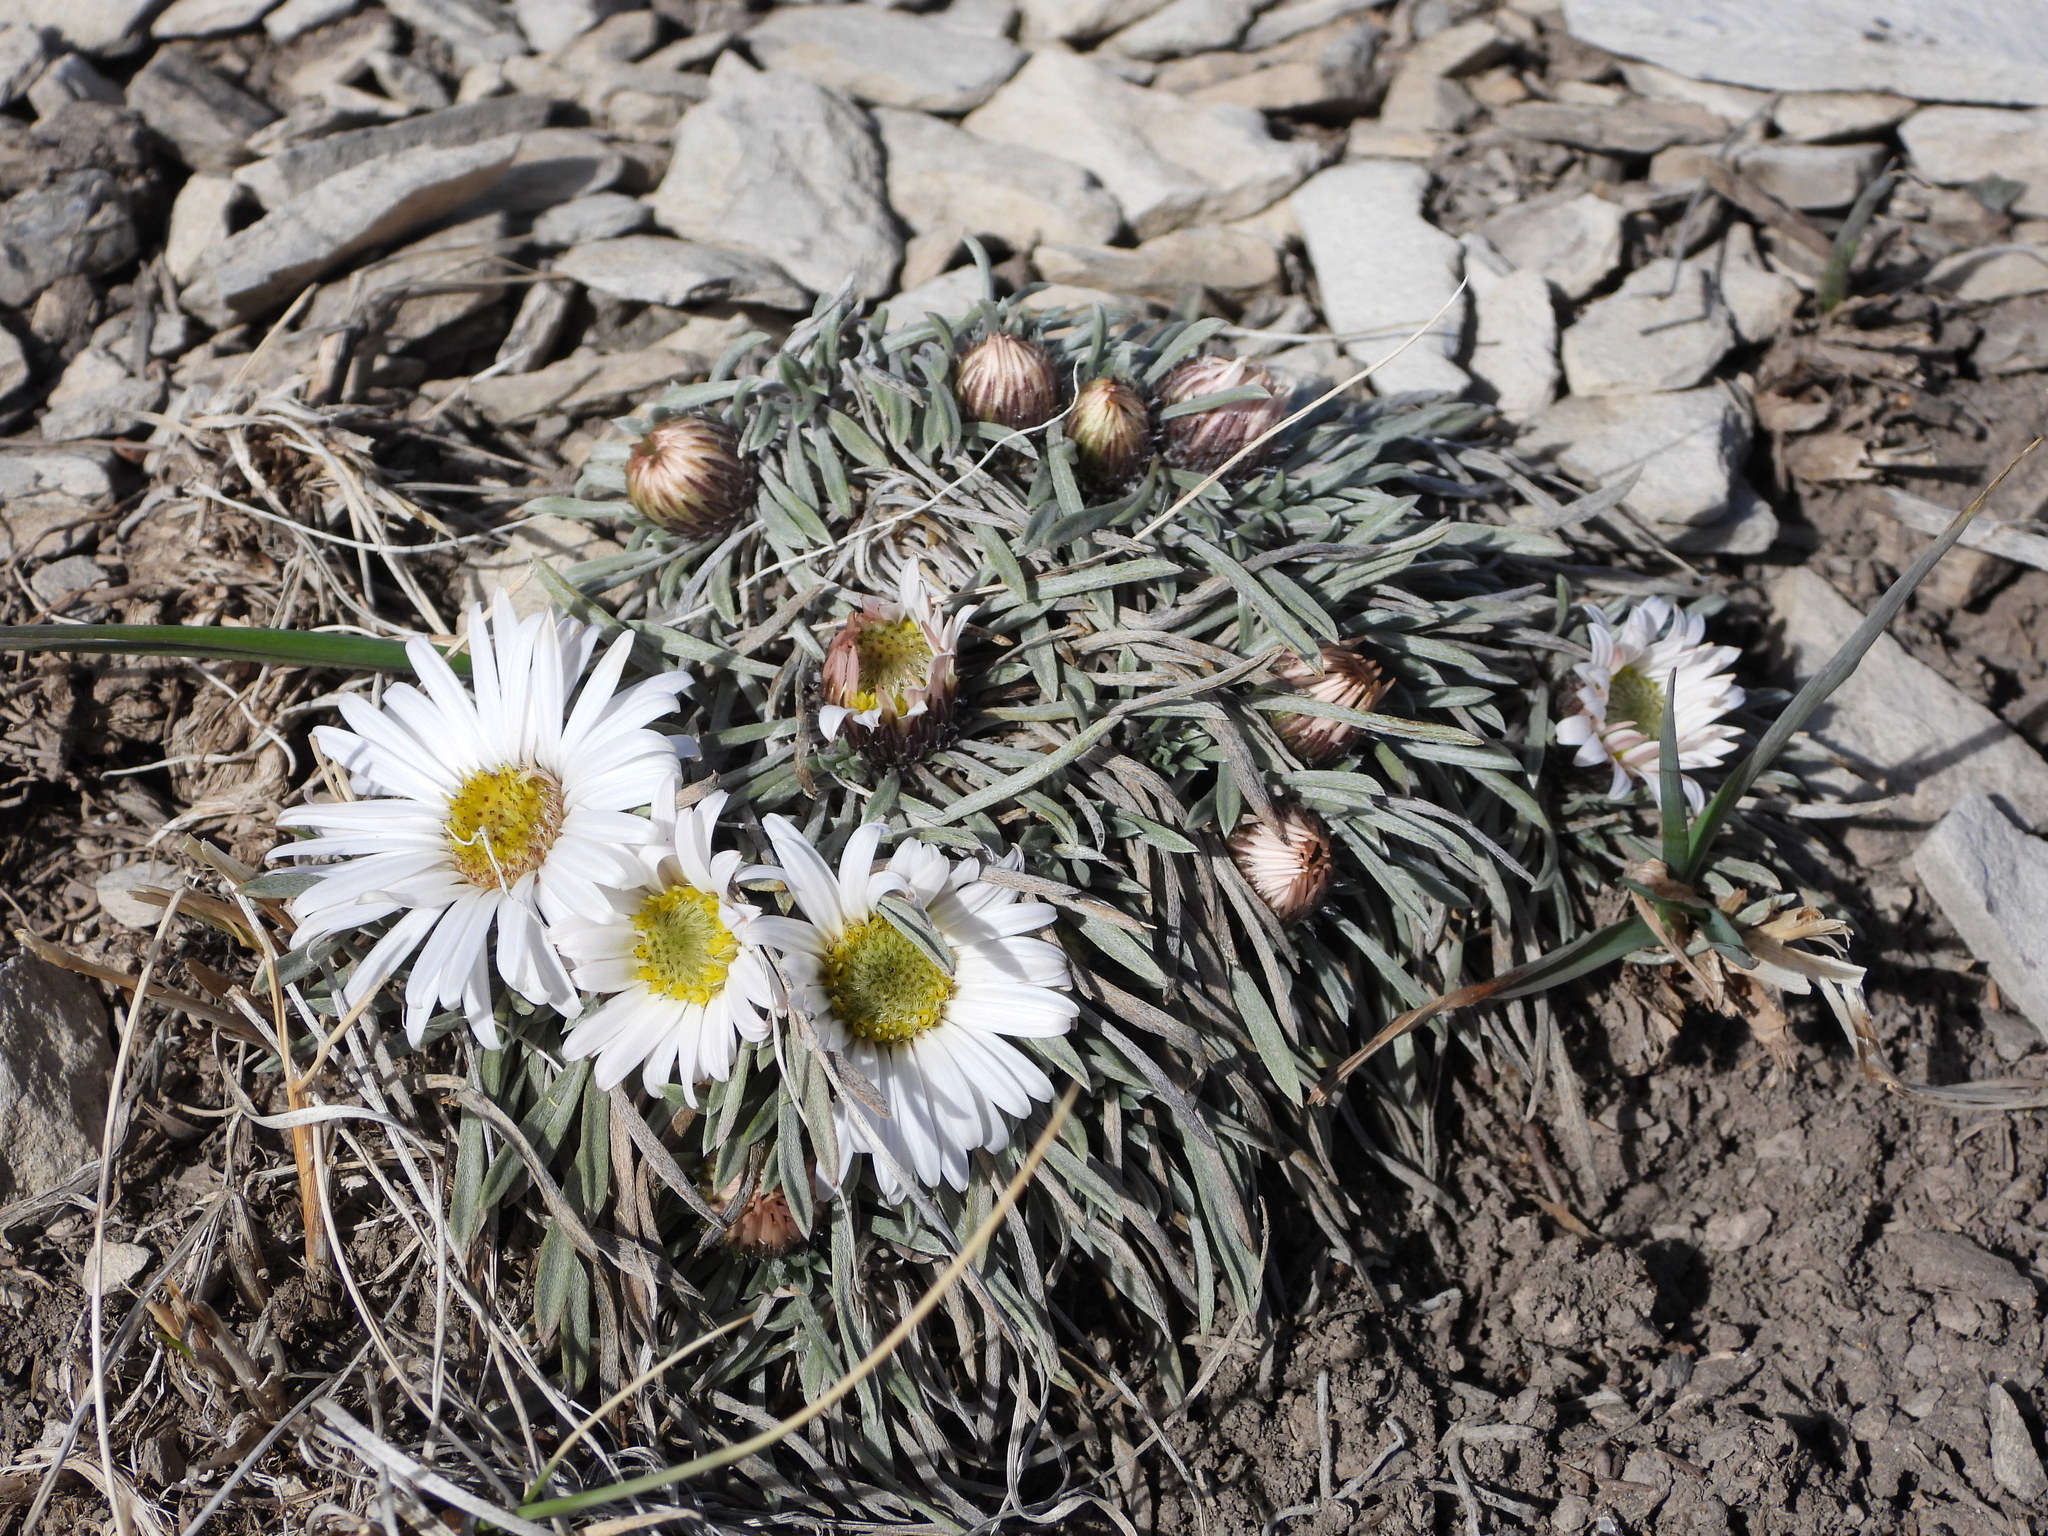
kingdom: Plantae
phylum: Tracheophyta
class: Magnoliopsida
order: Asterales
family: Asteraceae
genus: Townsendia
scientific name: Townsendia hookeri
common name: Hooker's townsend daisy
